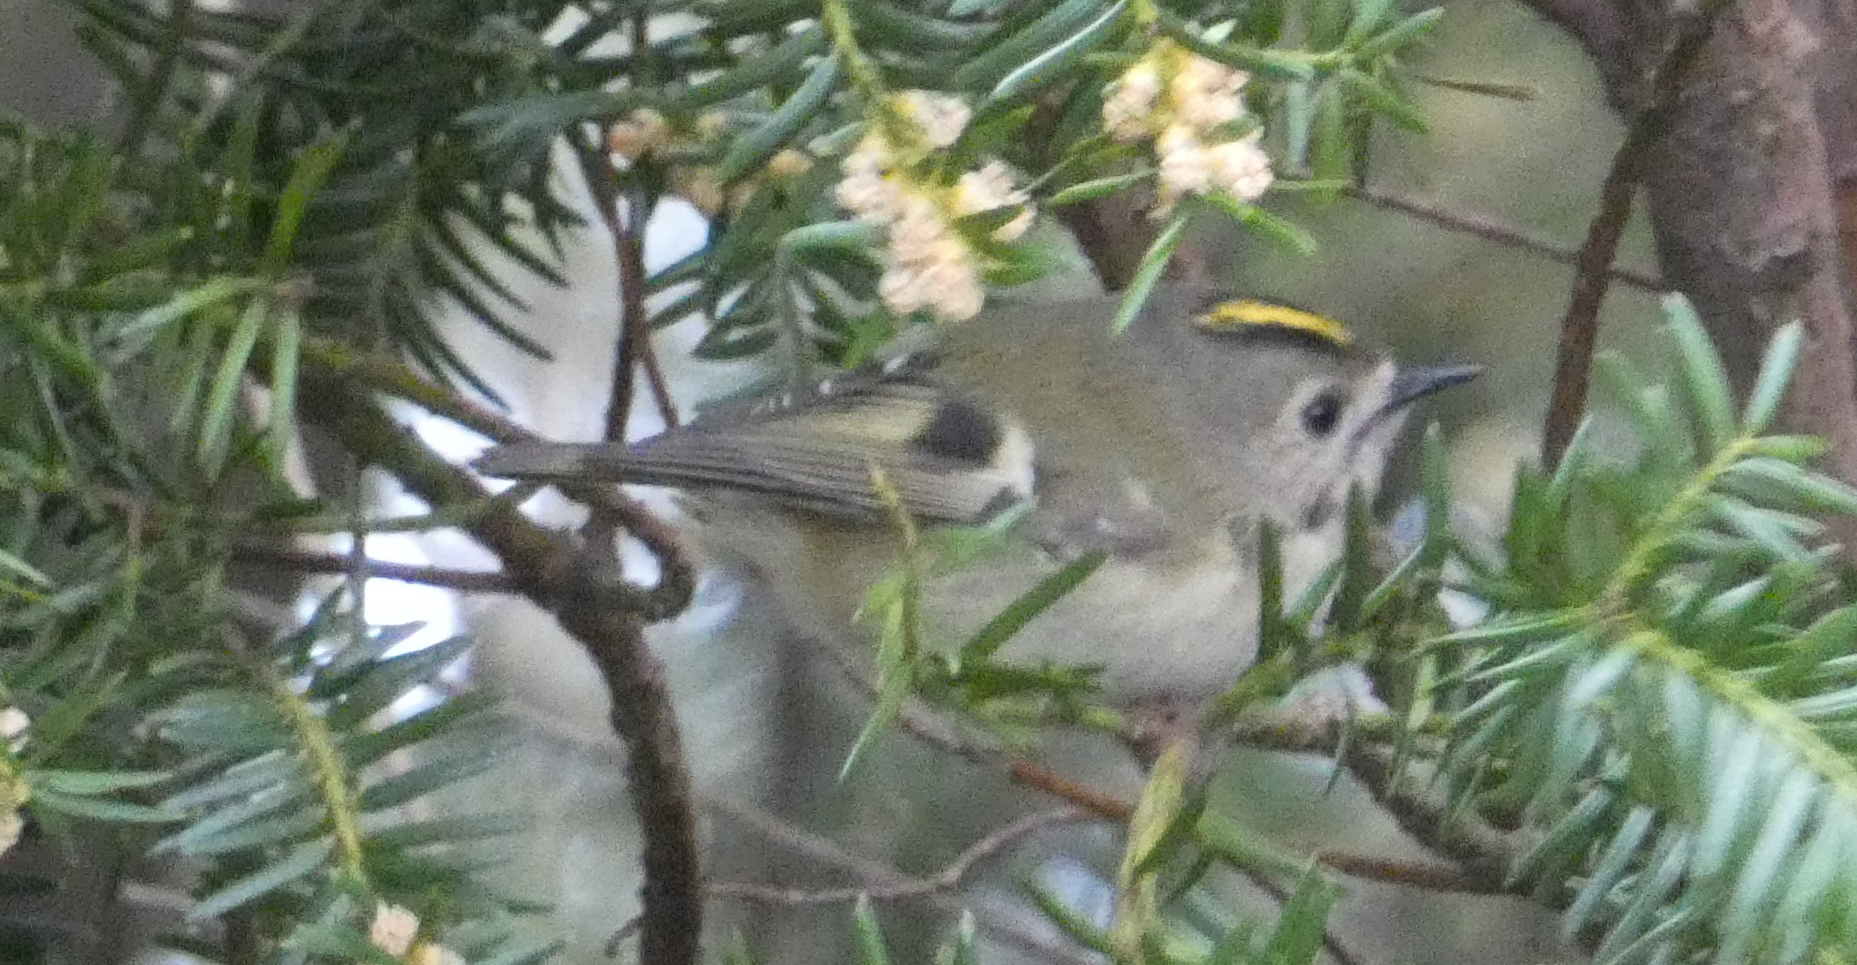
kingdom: Animalia
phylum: Chordata
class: Aves
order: Passeriformes
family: Regulidae
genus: Regulus
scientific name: Regulus regulus
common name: Goldcrest
